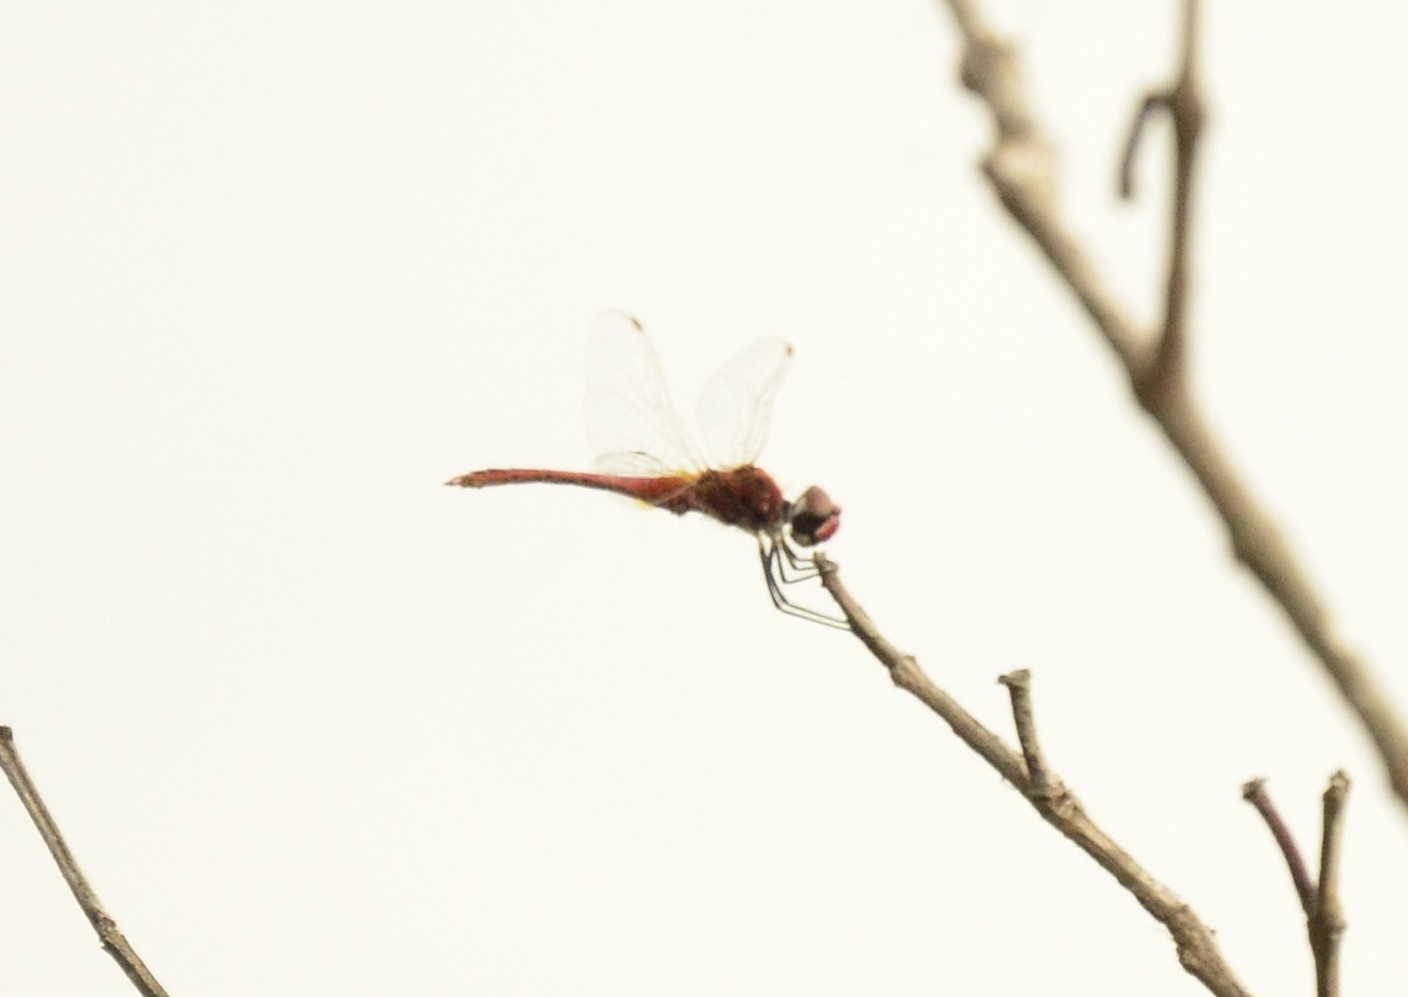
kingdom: Animalia
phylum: Arthropoda
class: Insecta
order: Odonata
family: Libellulidae
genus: Macrodiplax
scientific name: Macrodiplax cora
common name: Coastal glider
